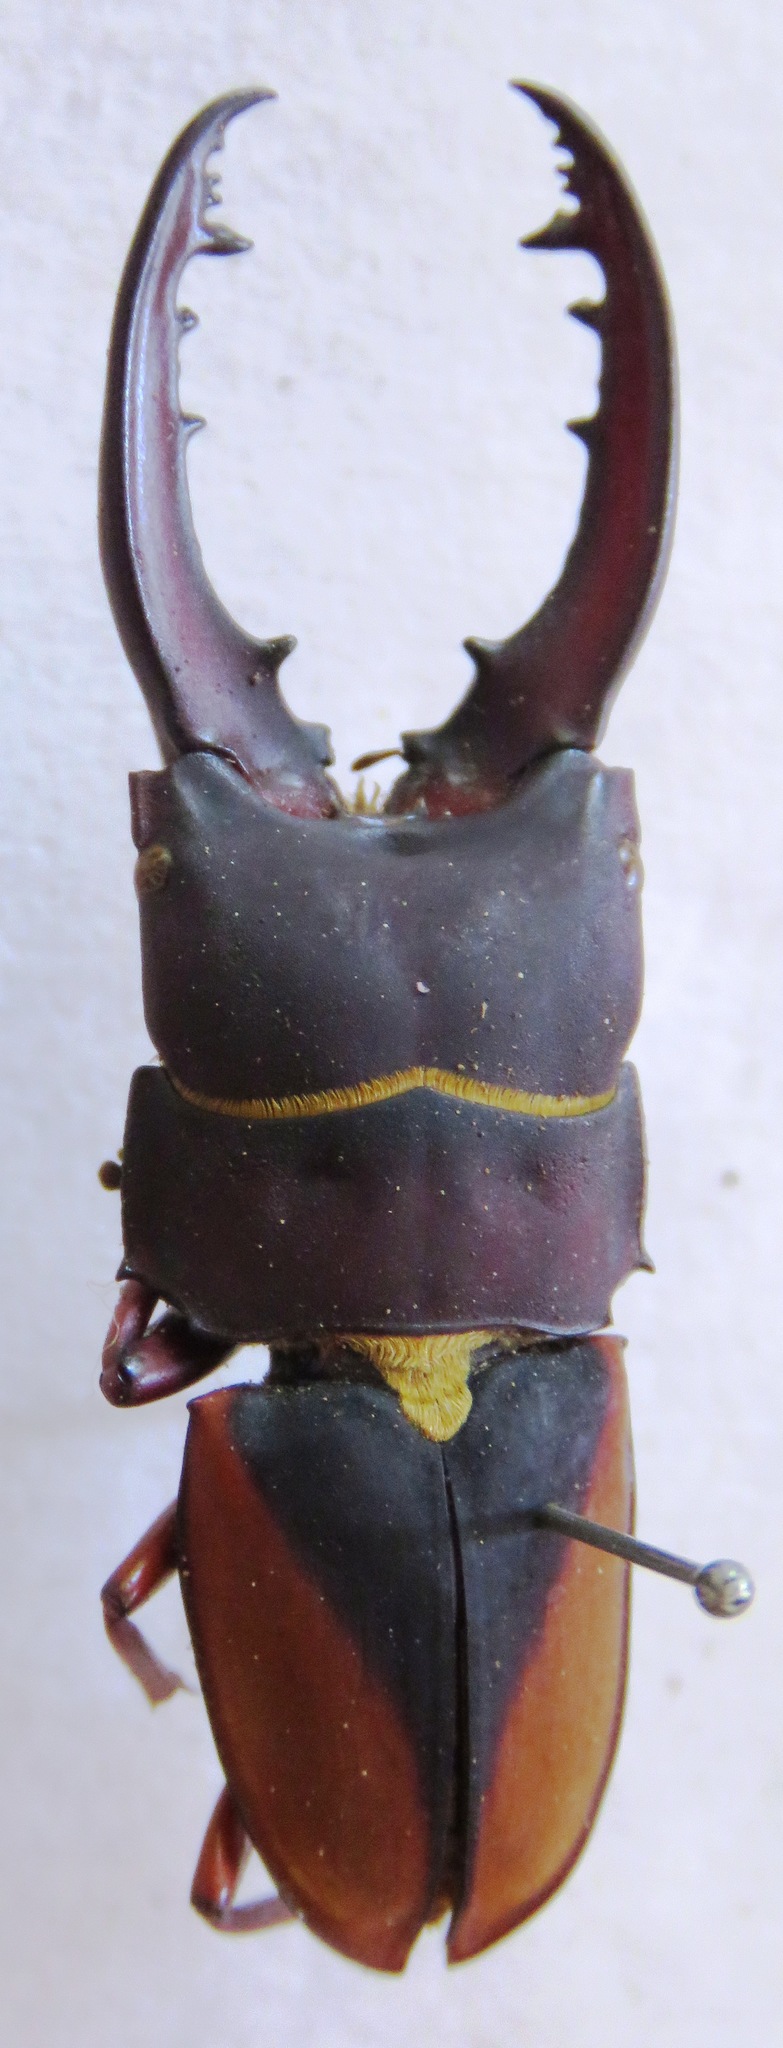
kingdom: Animalia
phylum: Arthropoda
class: Insecta
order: Coleoptera
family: Lucanidae
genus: Leptinopterus
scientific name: Leptinopterus v-nigrum
